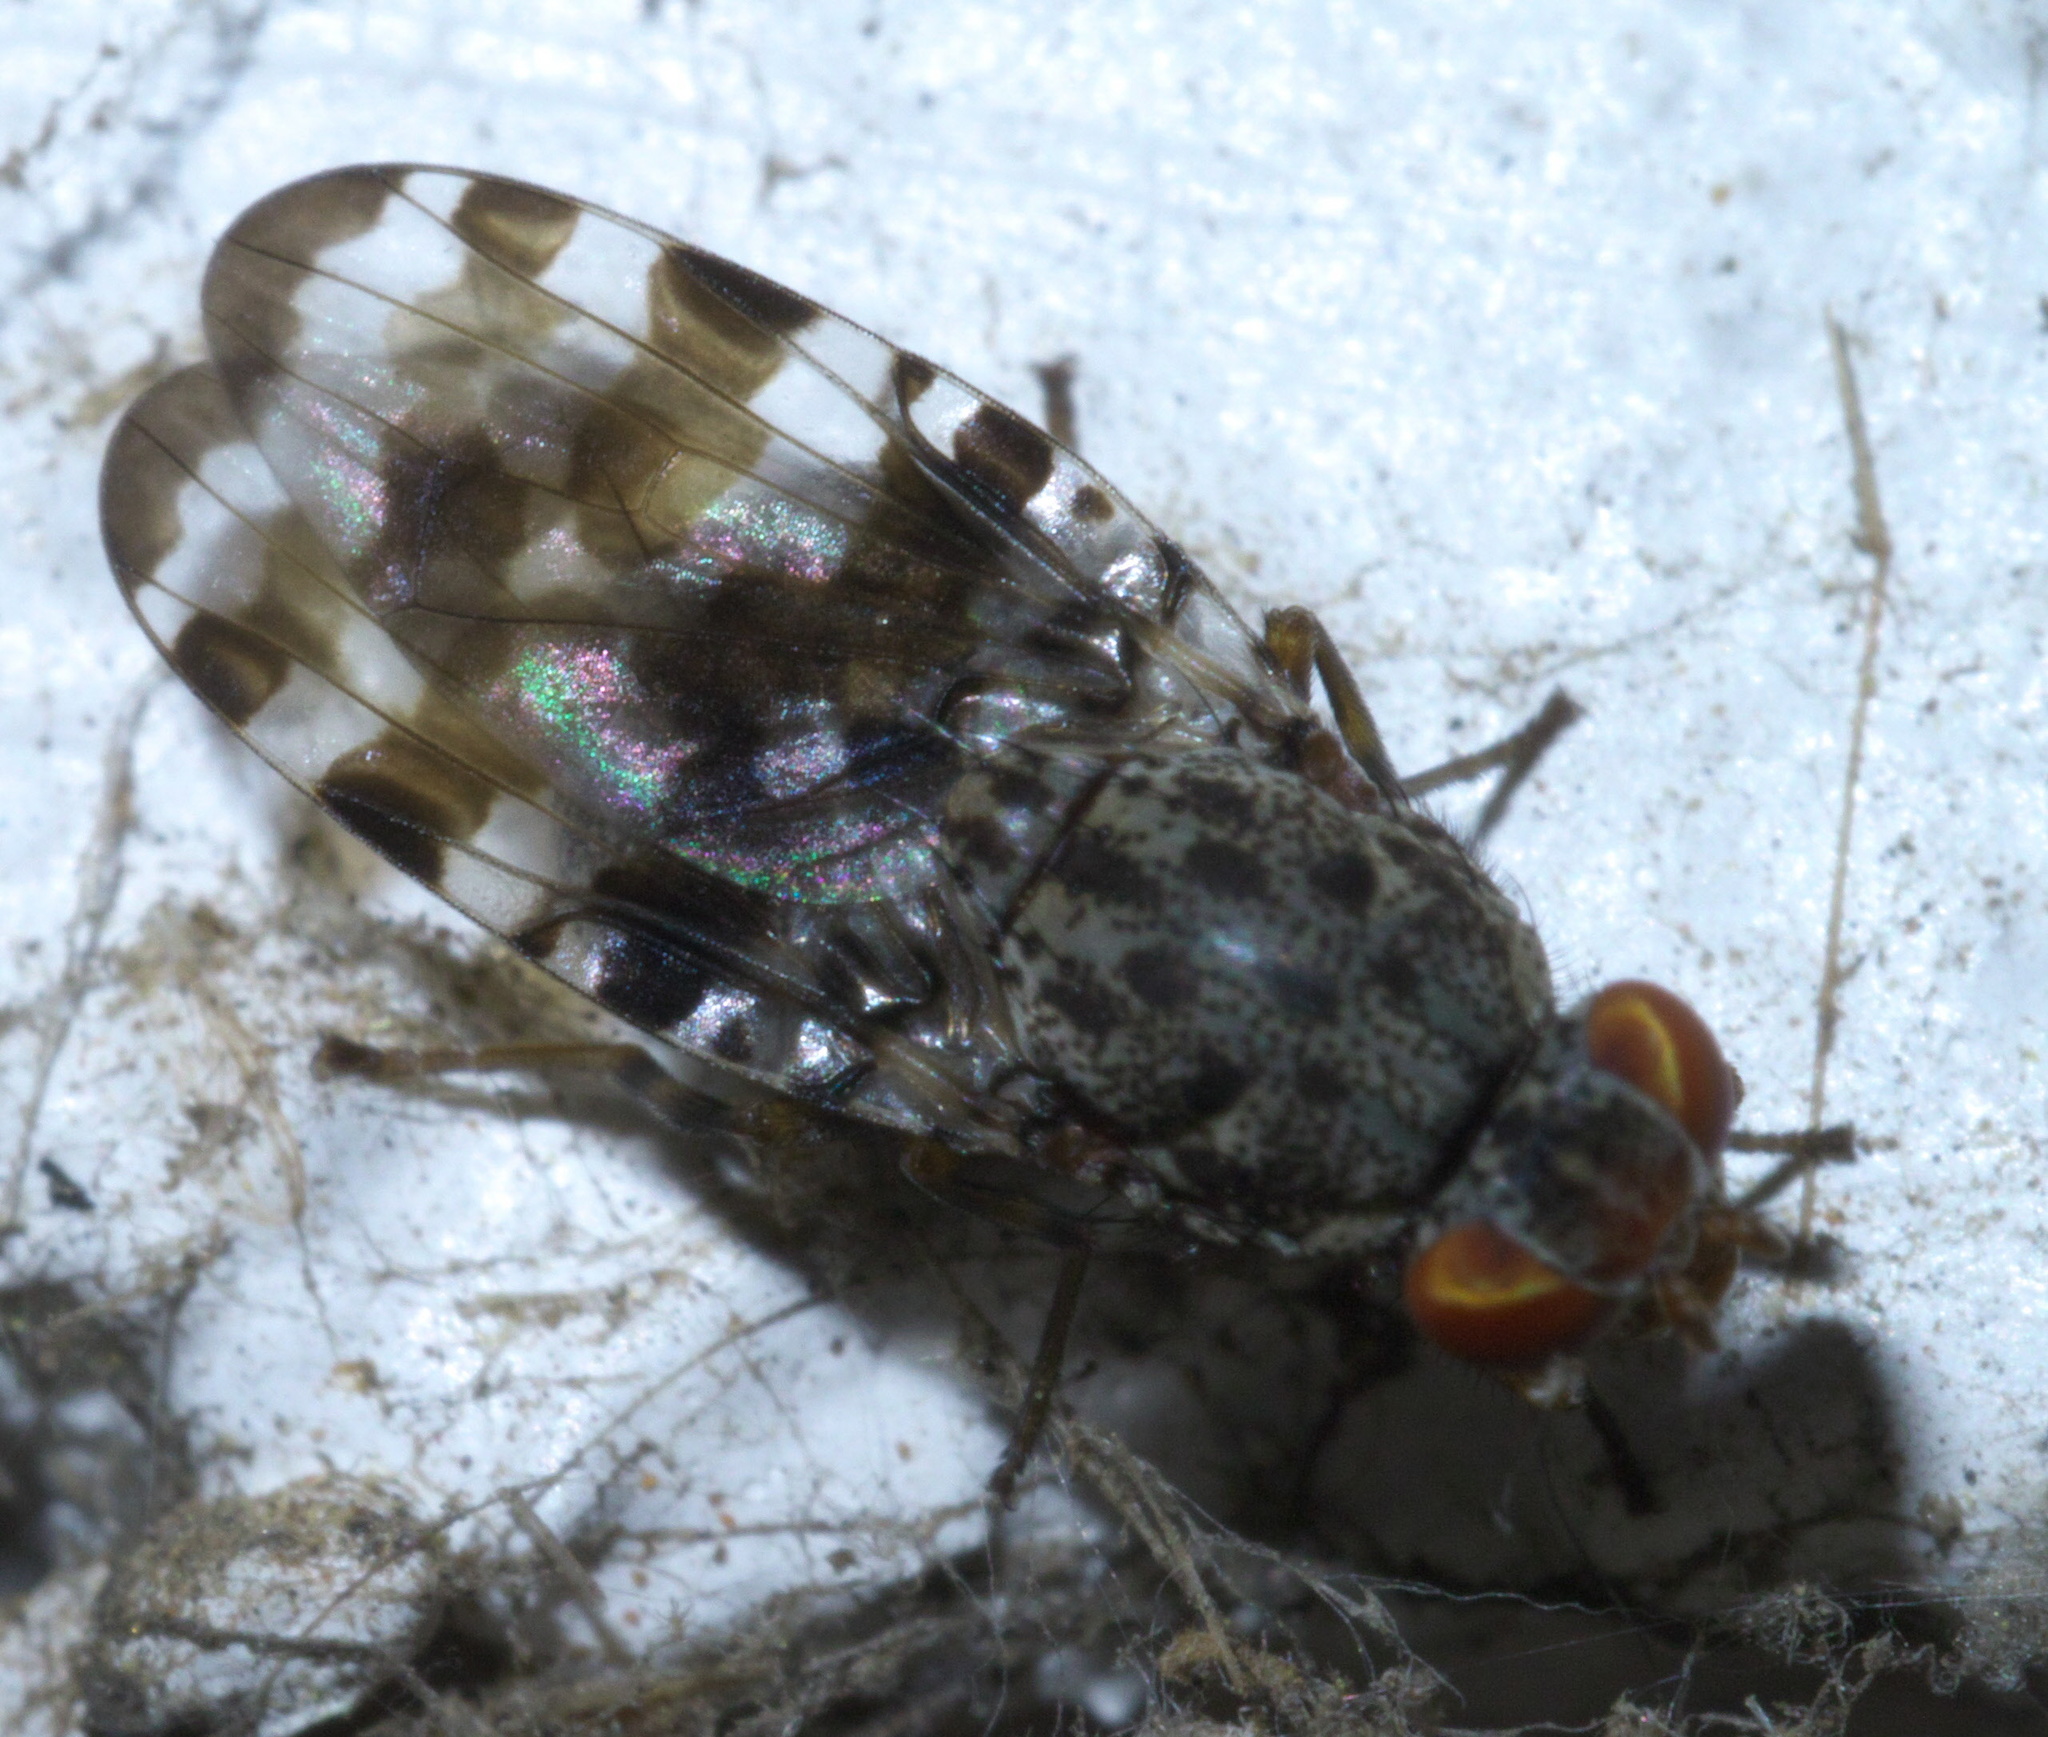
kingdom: Animalia
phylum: Arthropoda
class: Insecta
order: Diptera
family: Ulidiidae
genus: Pseudotephritis
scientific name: Pseudotephritis approximata
